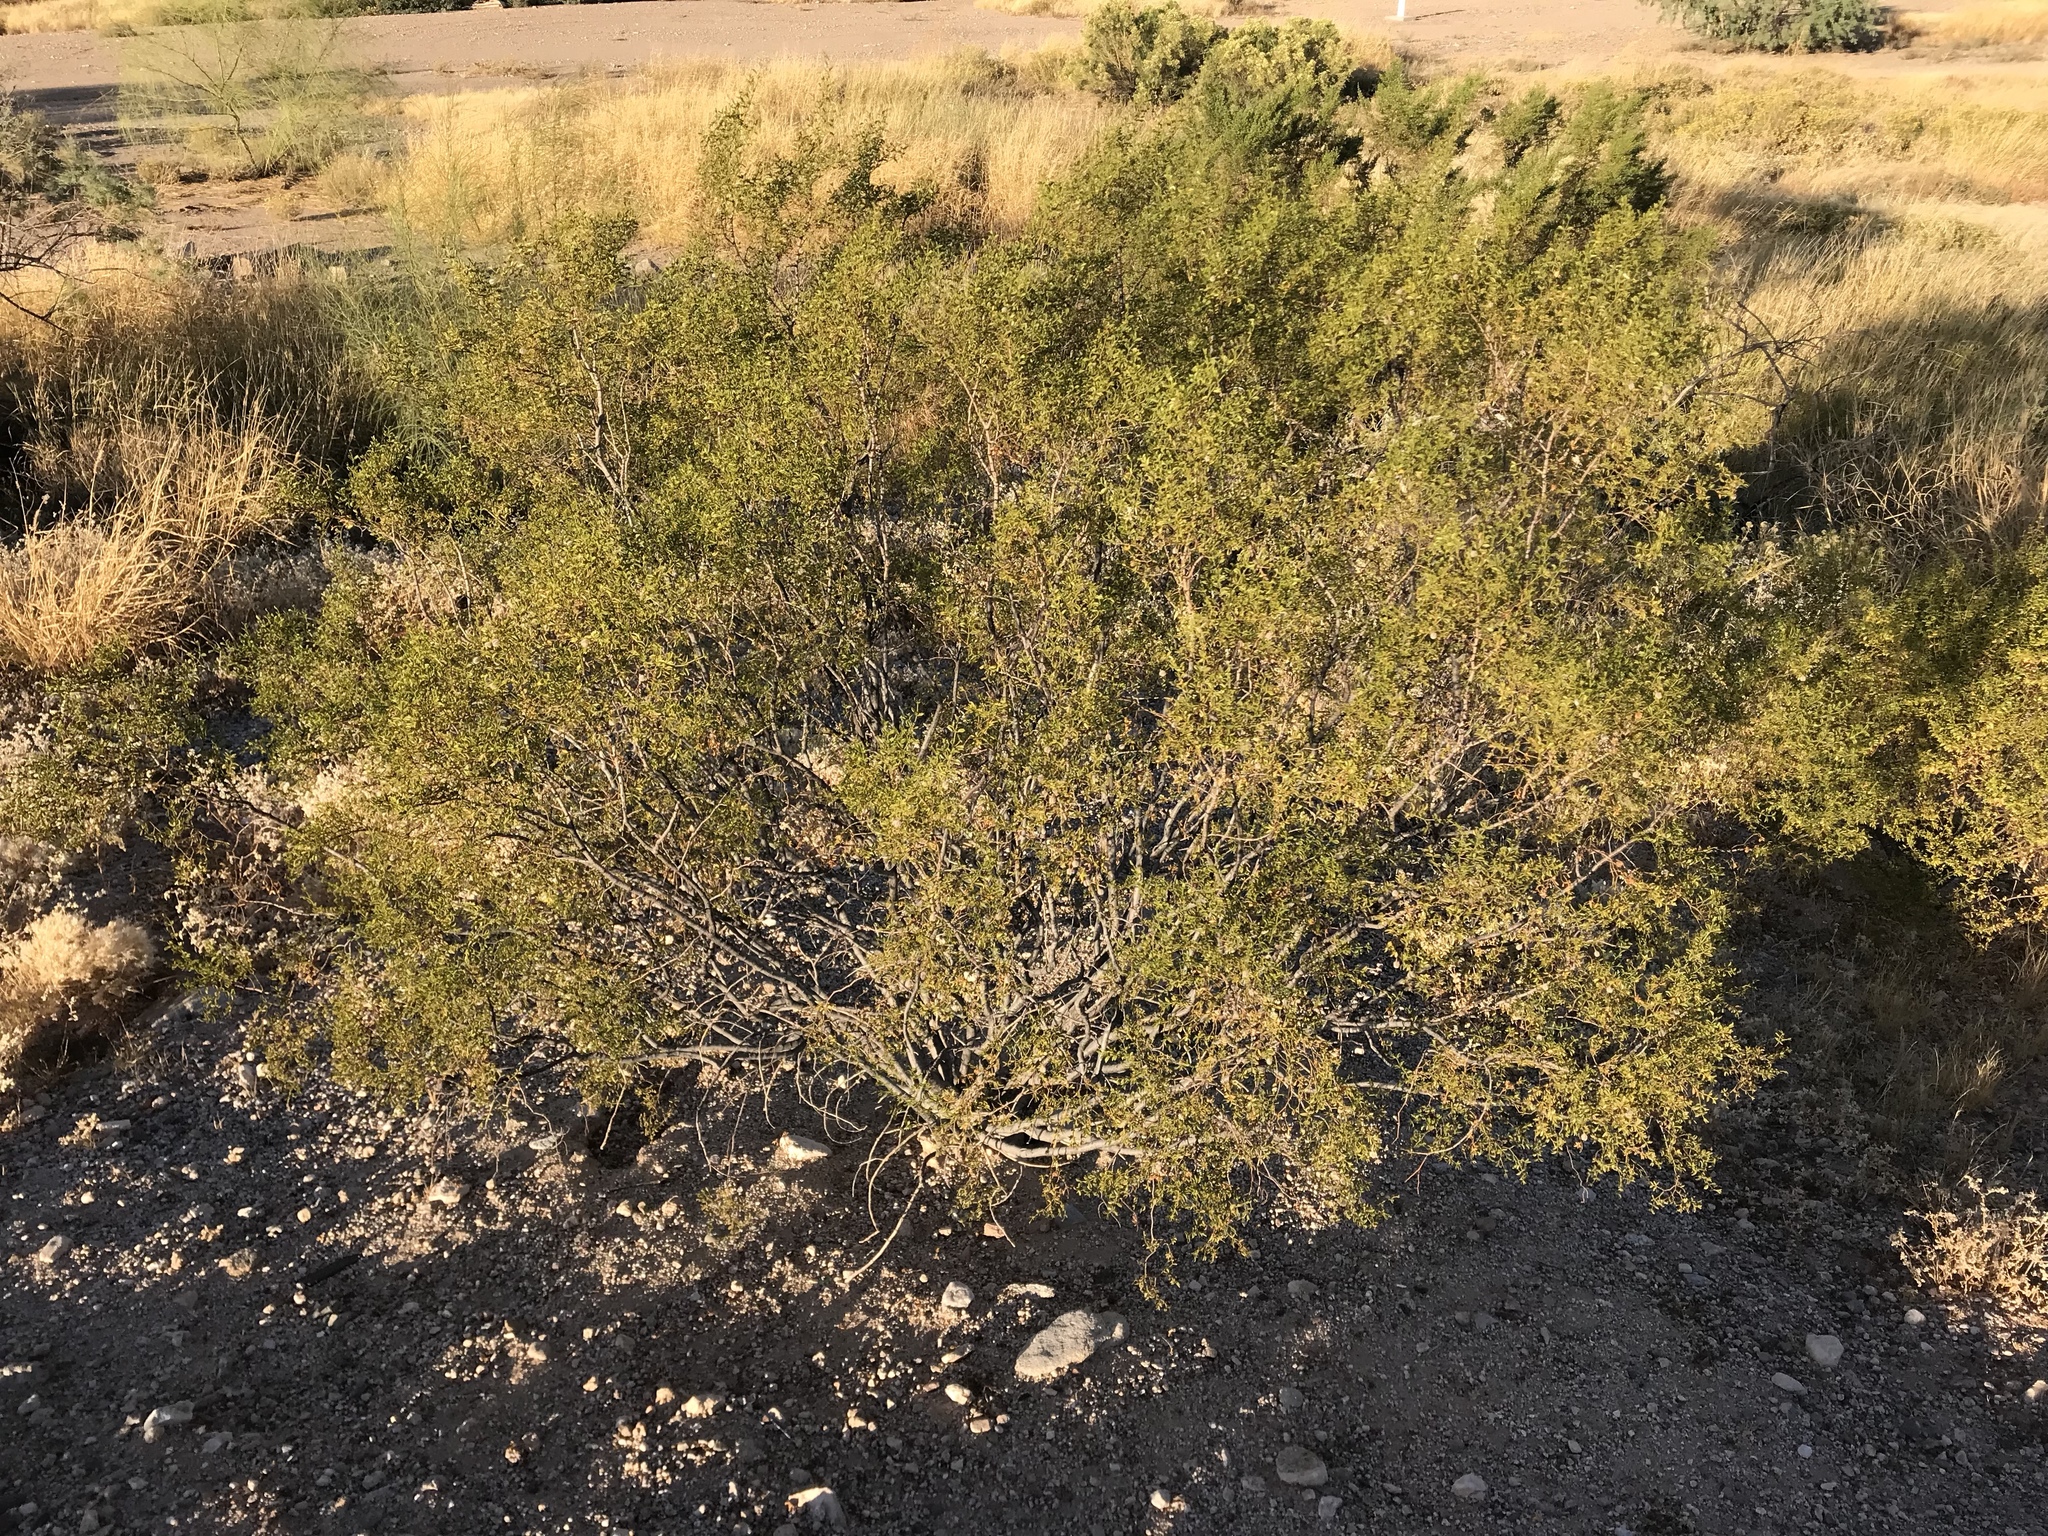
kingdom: Plantae
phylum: Tracheophyta
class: Magnoliopsida
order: Zygophyllales
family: Zygophyllaceae
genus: Larrea
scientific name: Larrea tridentata
